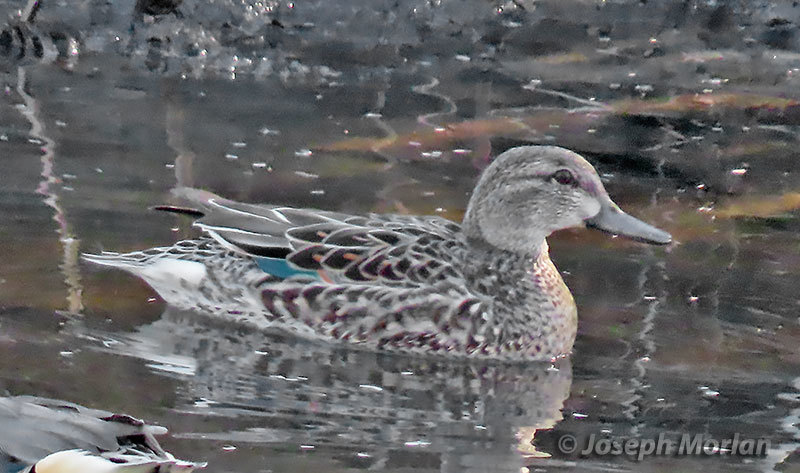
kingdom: Animalia
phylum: Chordata
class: Aves
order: Anseriformes
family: Anatidae
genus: Anas
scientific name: Anas crecca
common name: Eurasian teal
